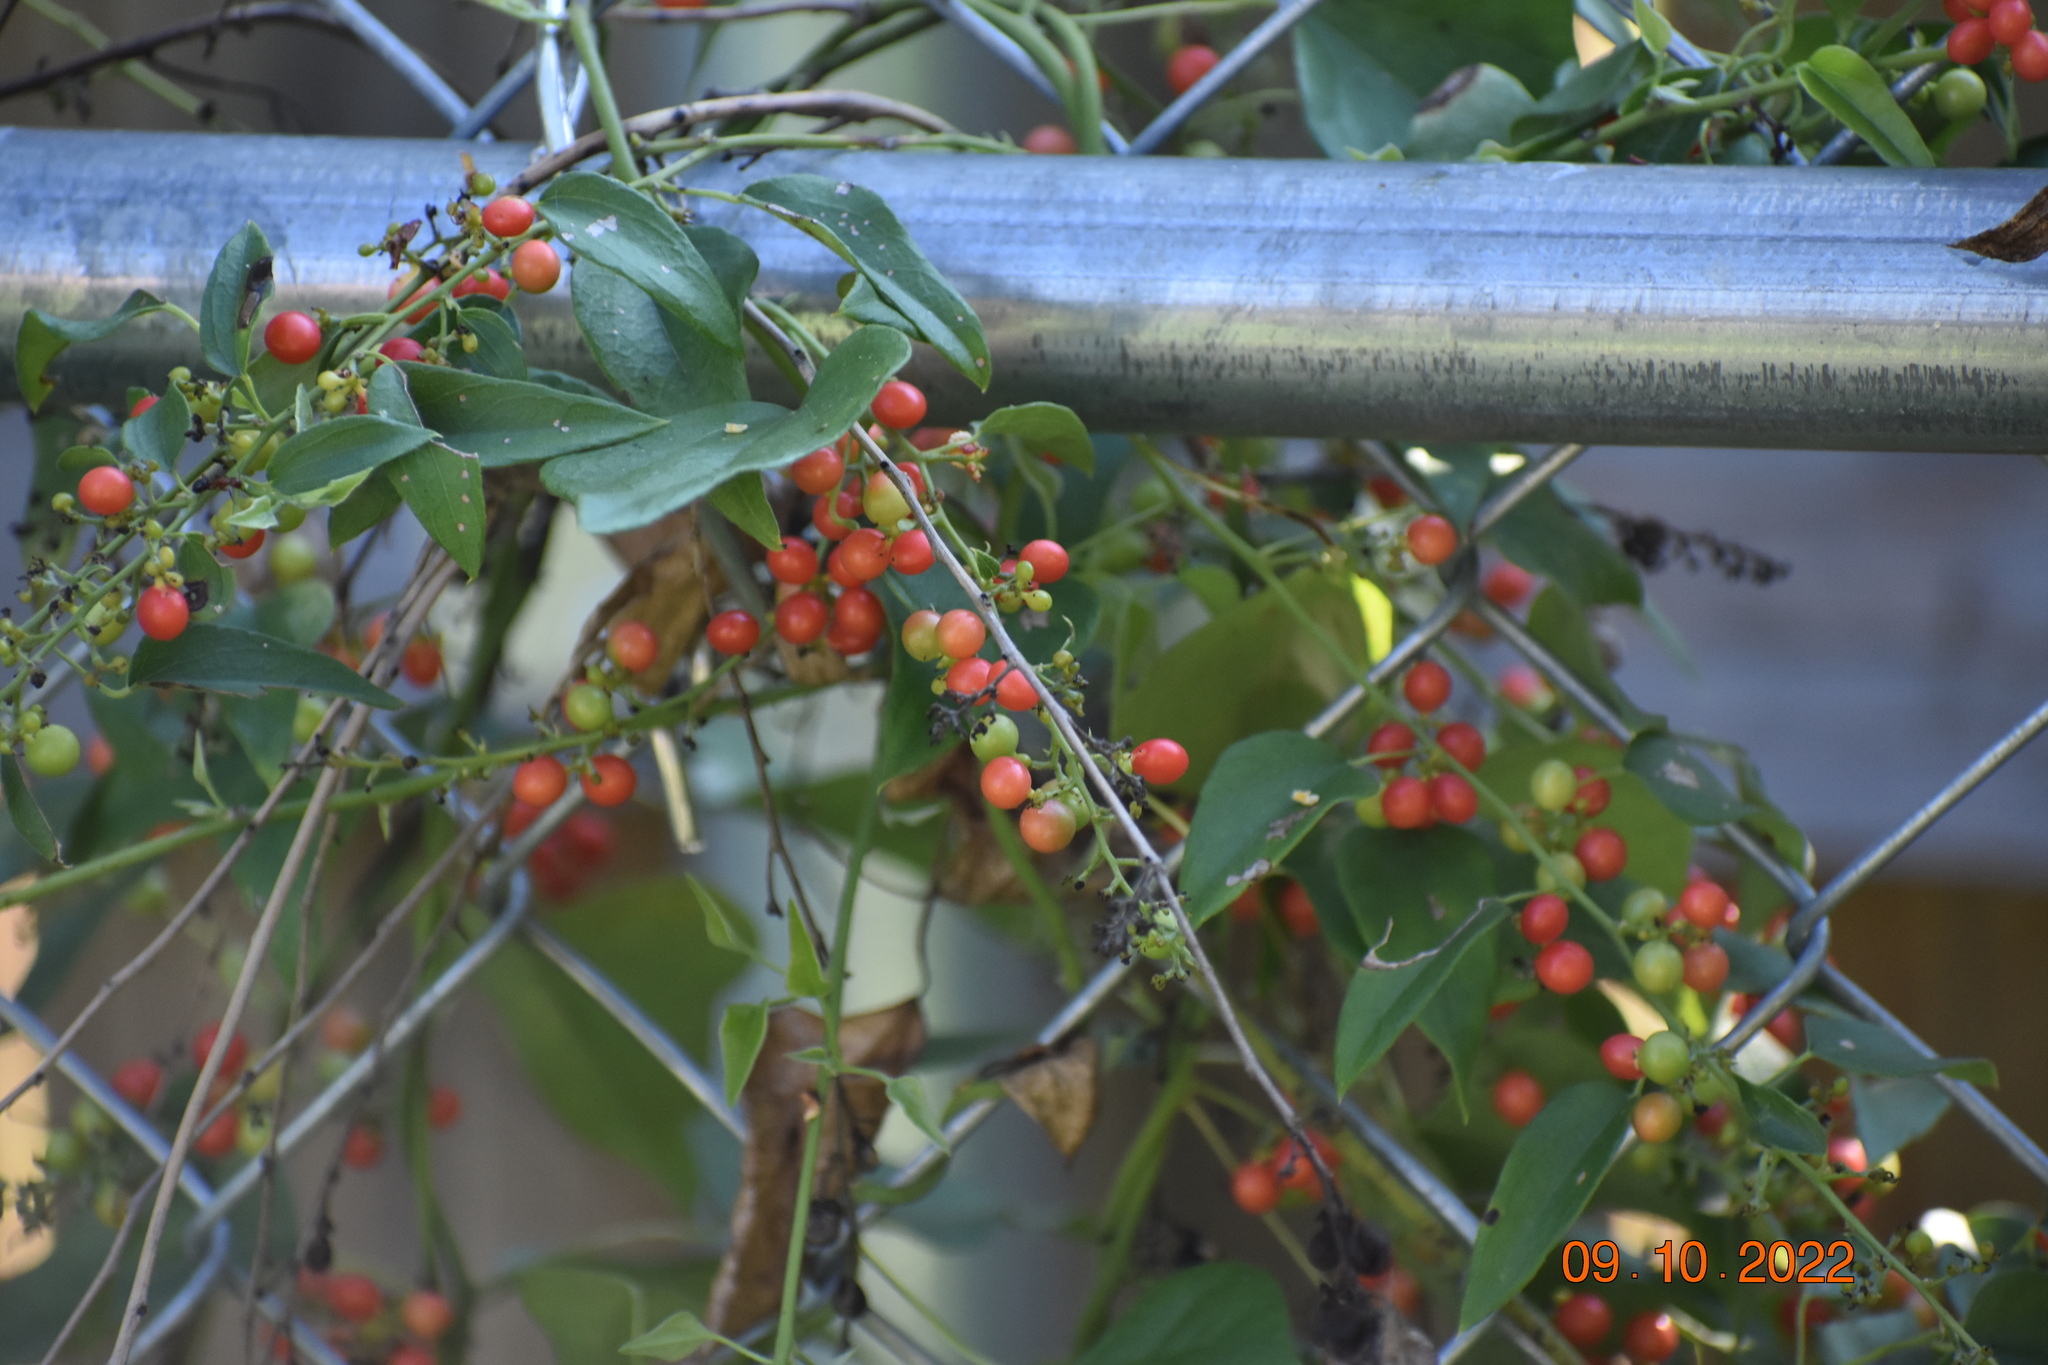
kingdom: Plantae
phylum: Tracheophyta
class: Magnoliopsida
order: Ranunculales
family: Menispermaceae
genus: Cocculus
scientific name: Cocculus carolinus
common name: Carolina moonseed
